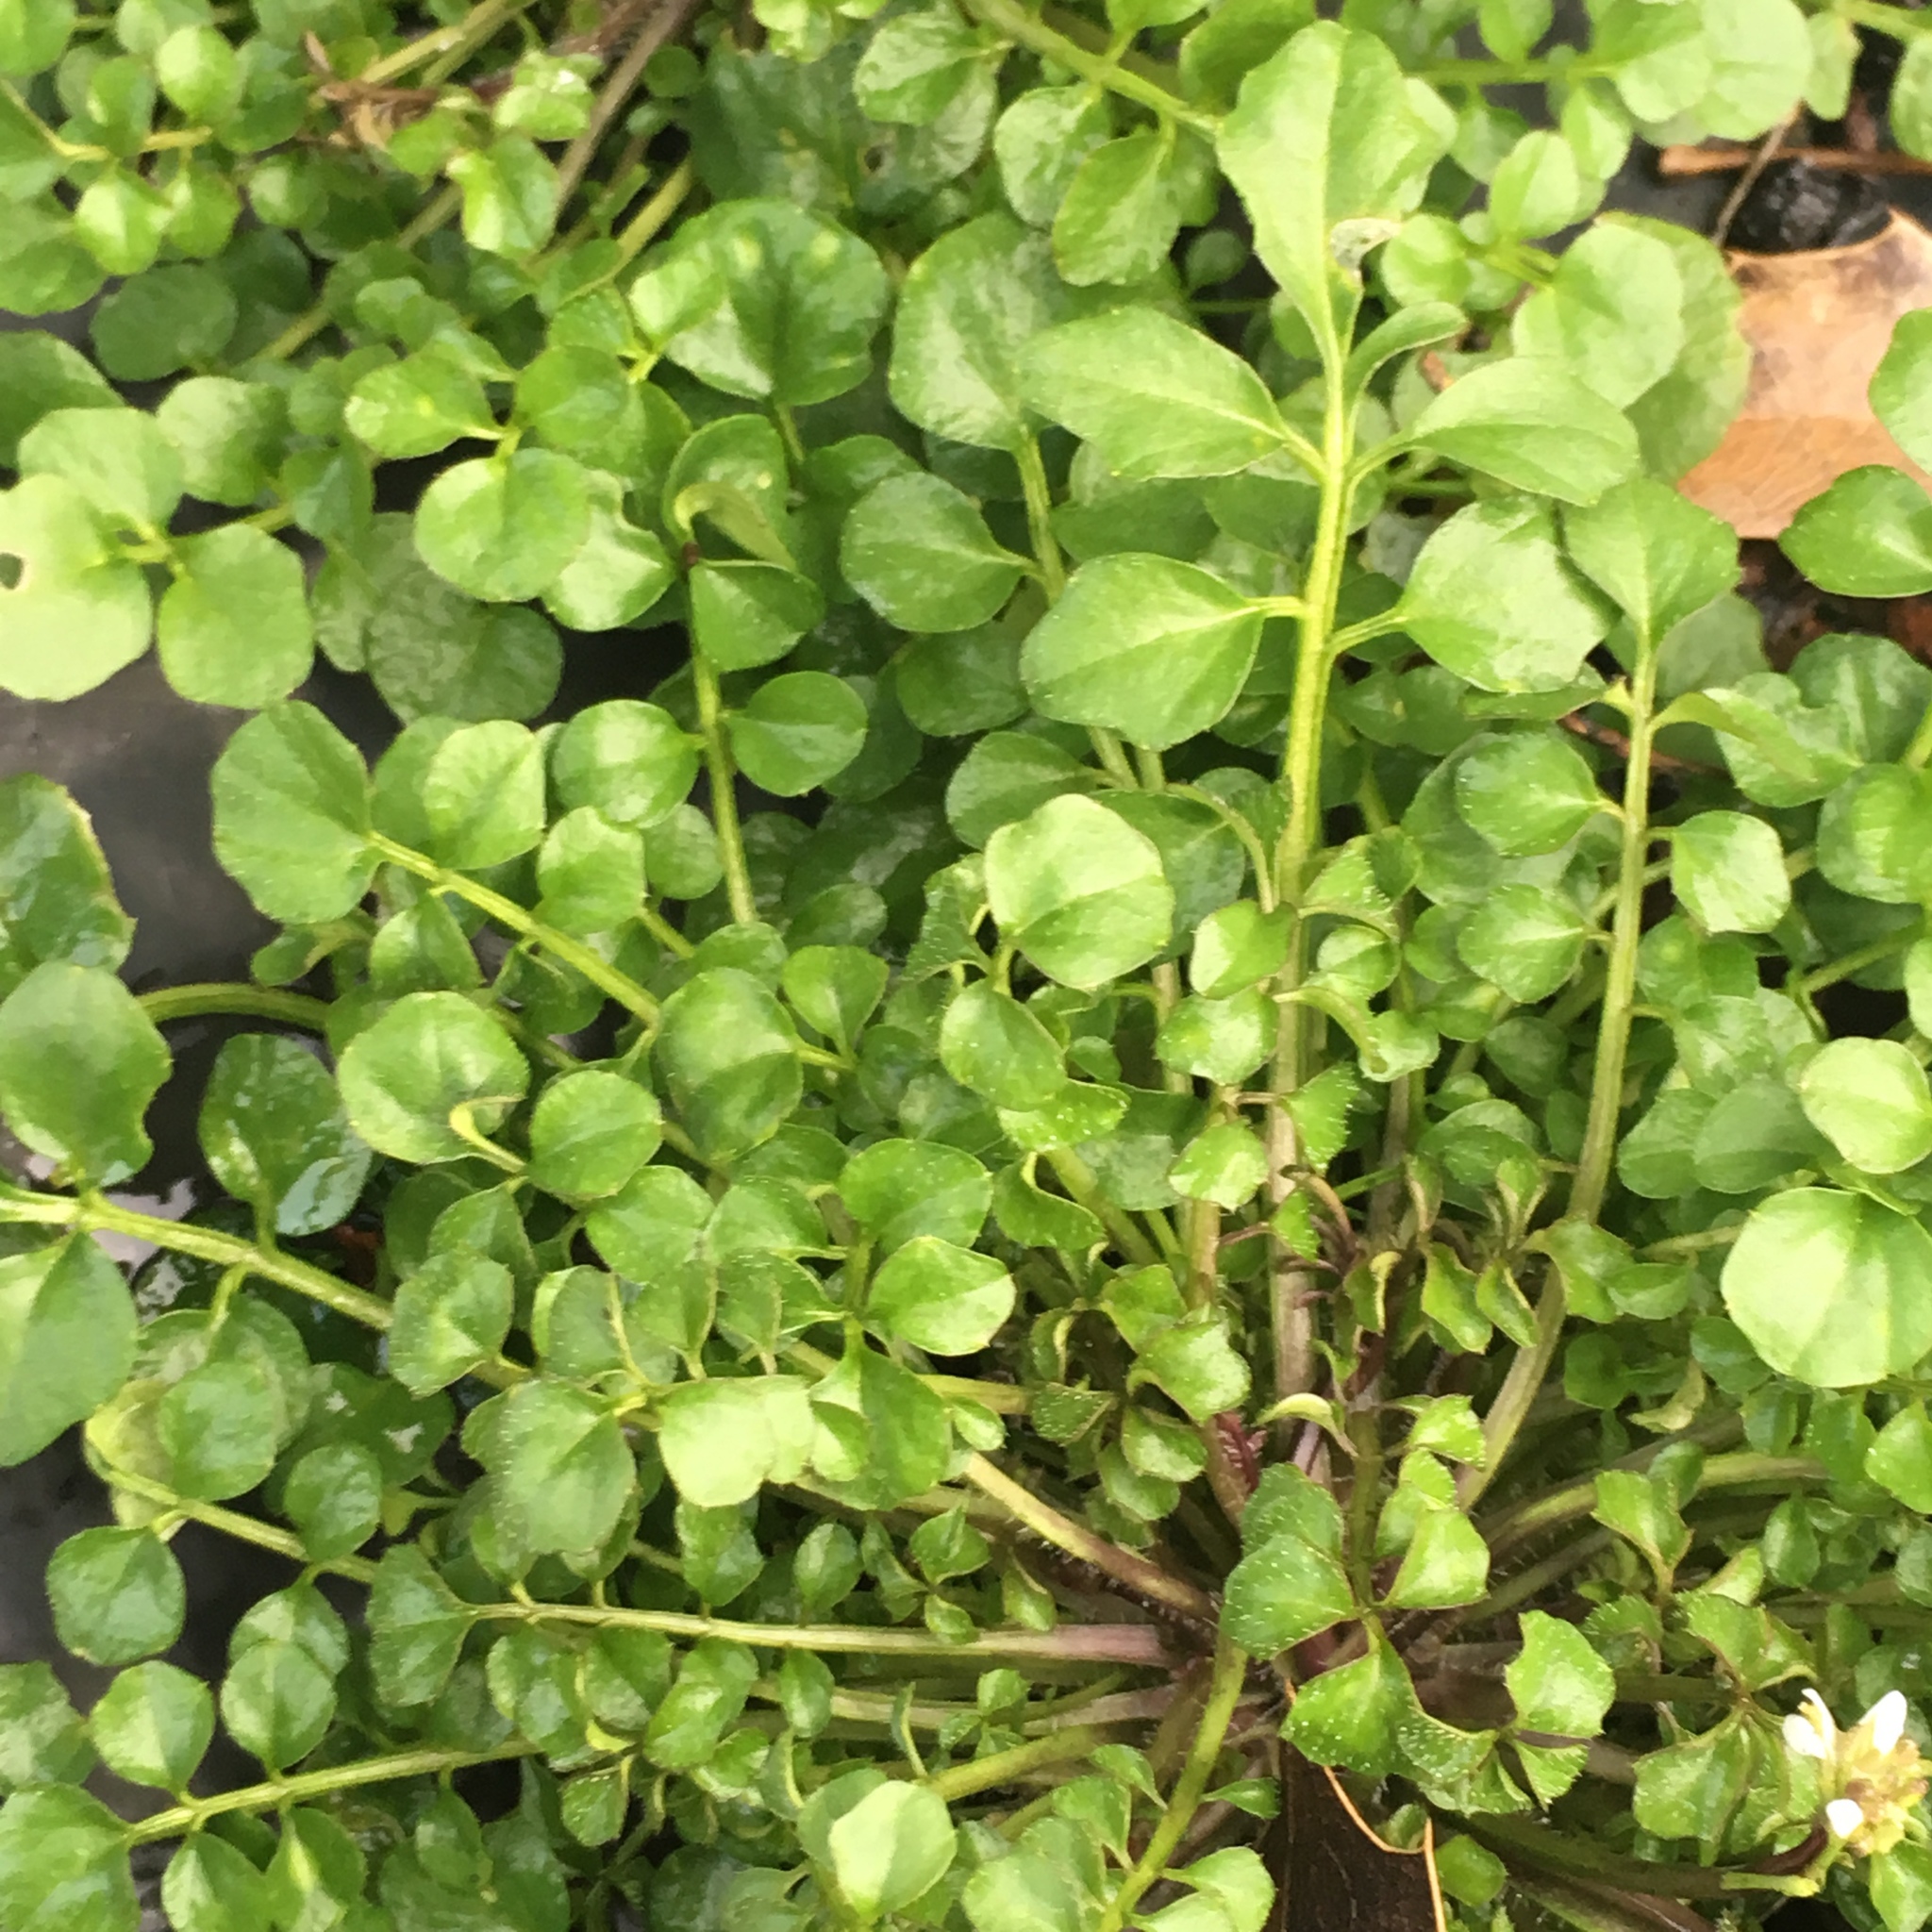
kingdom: Plantae
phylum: Tracheophyta
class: Magnoliopsida
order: Brassicales
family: Brassicaceae
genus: Cardamine
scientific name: Cardamine hirsuta
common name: Hairy bittercress
